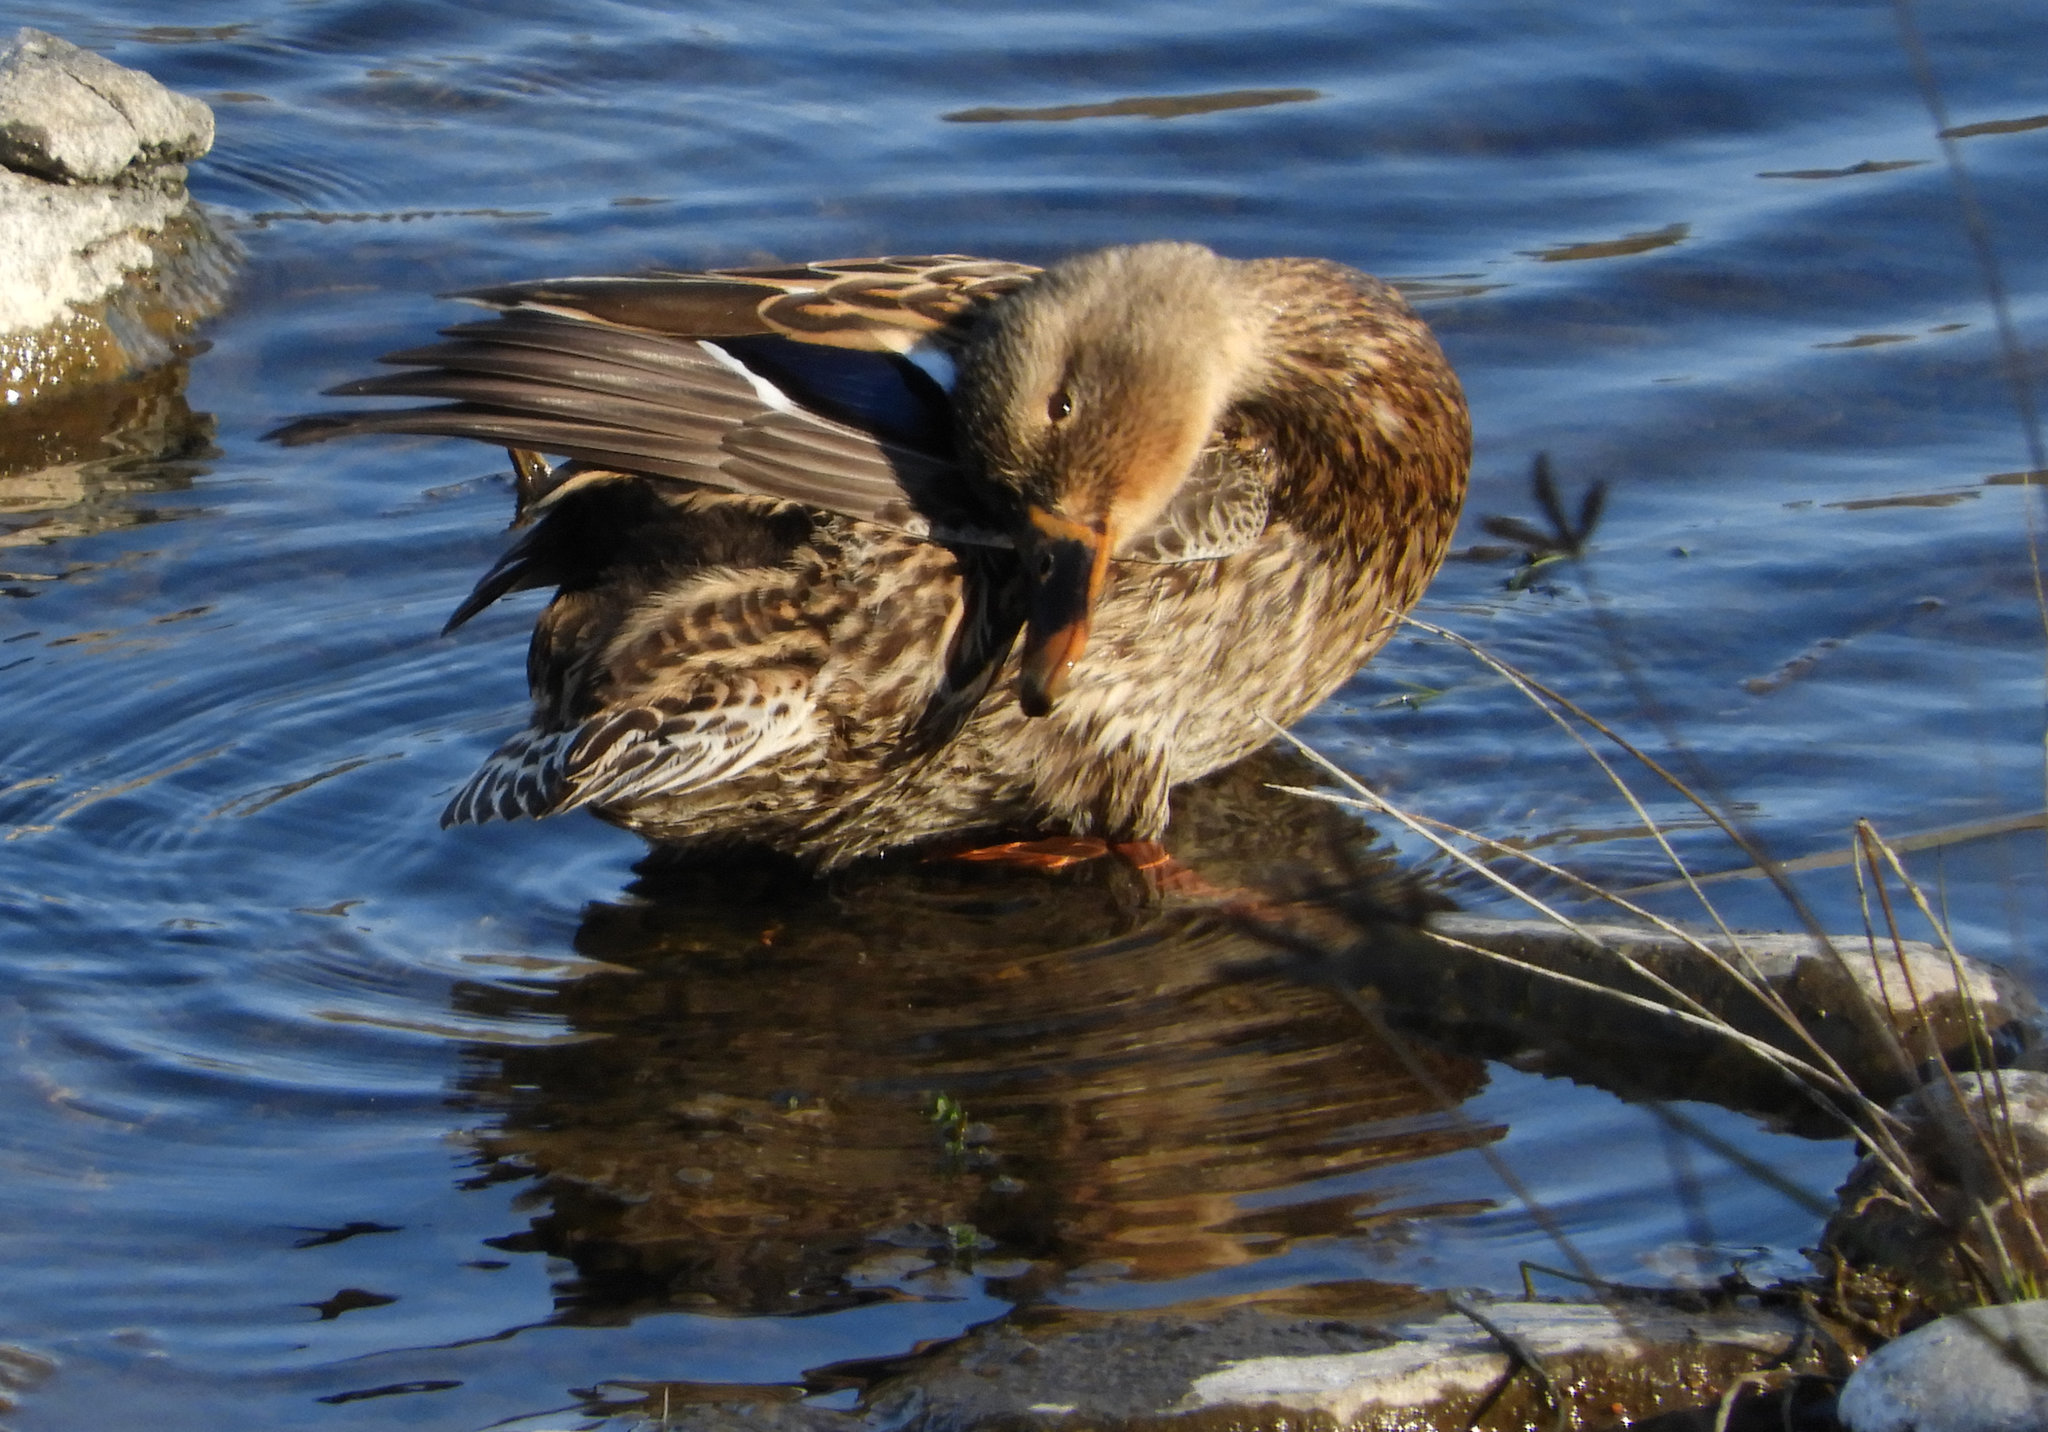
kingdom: Animalia
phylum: Chordata
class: Aves
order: Anseriformes
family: Anatidae
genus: Anas
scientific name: Anas platyrhynchos
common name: Mallard
